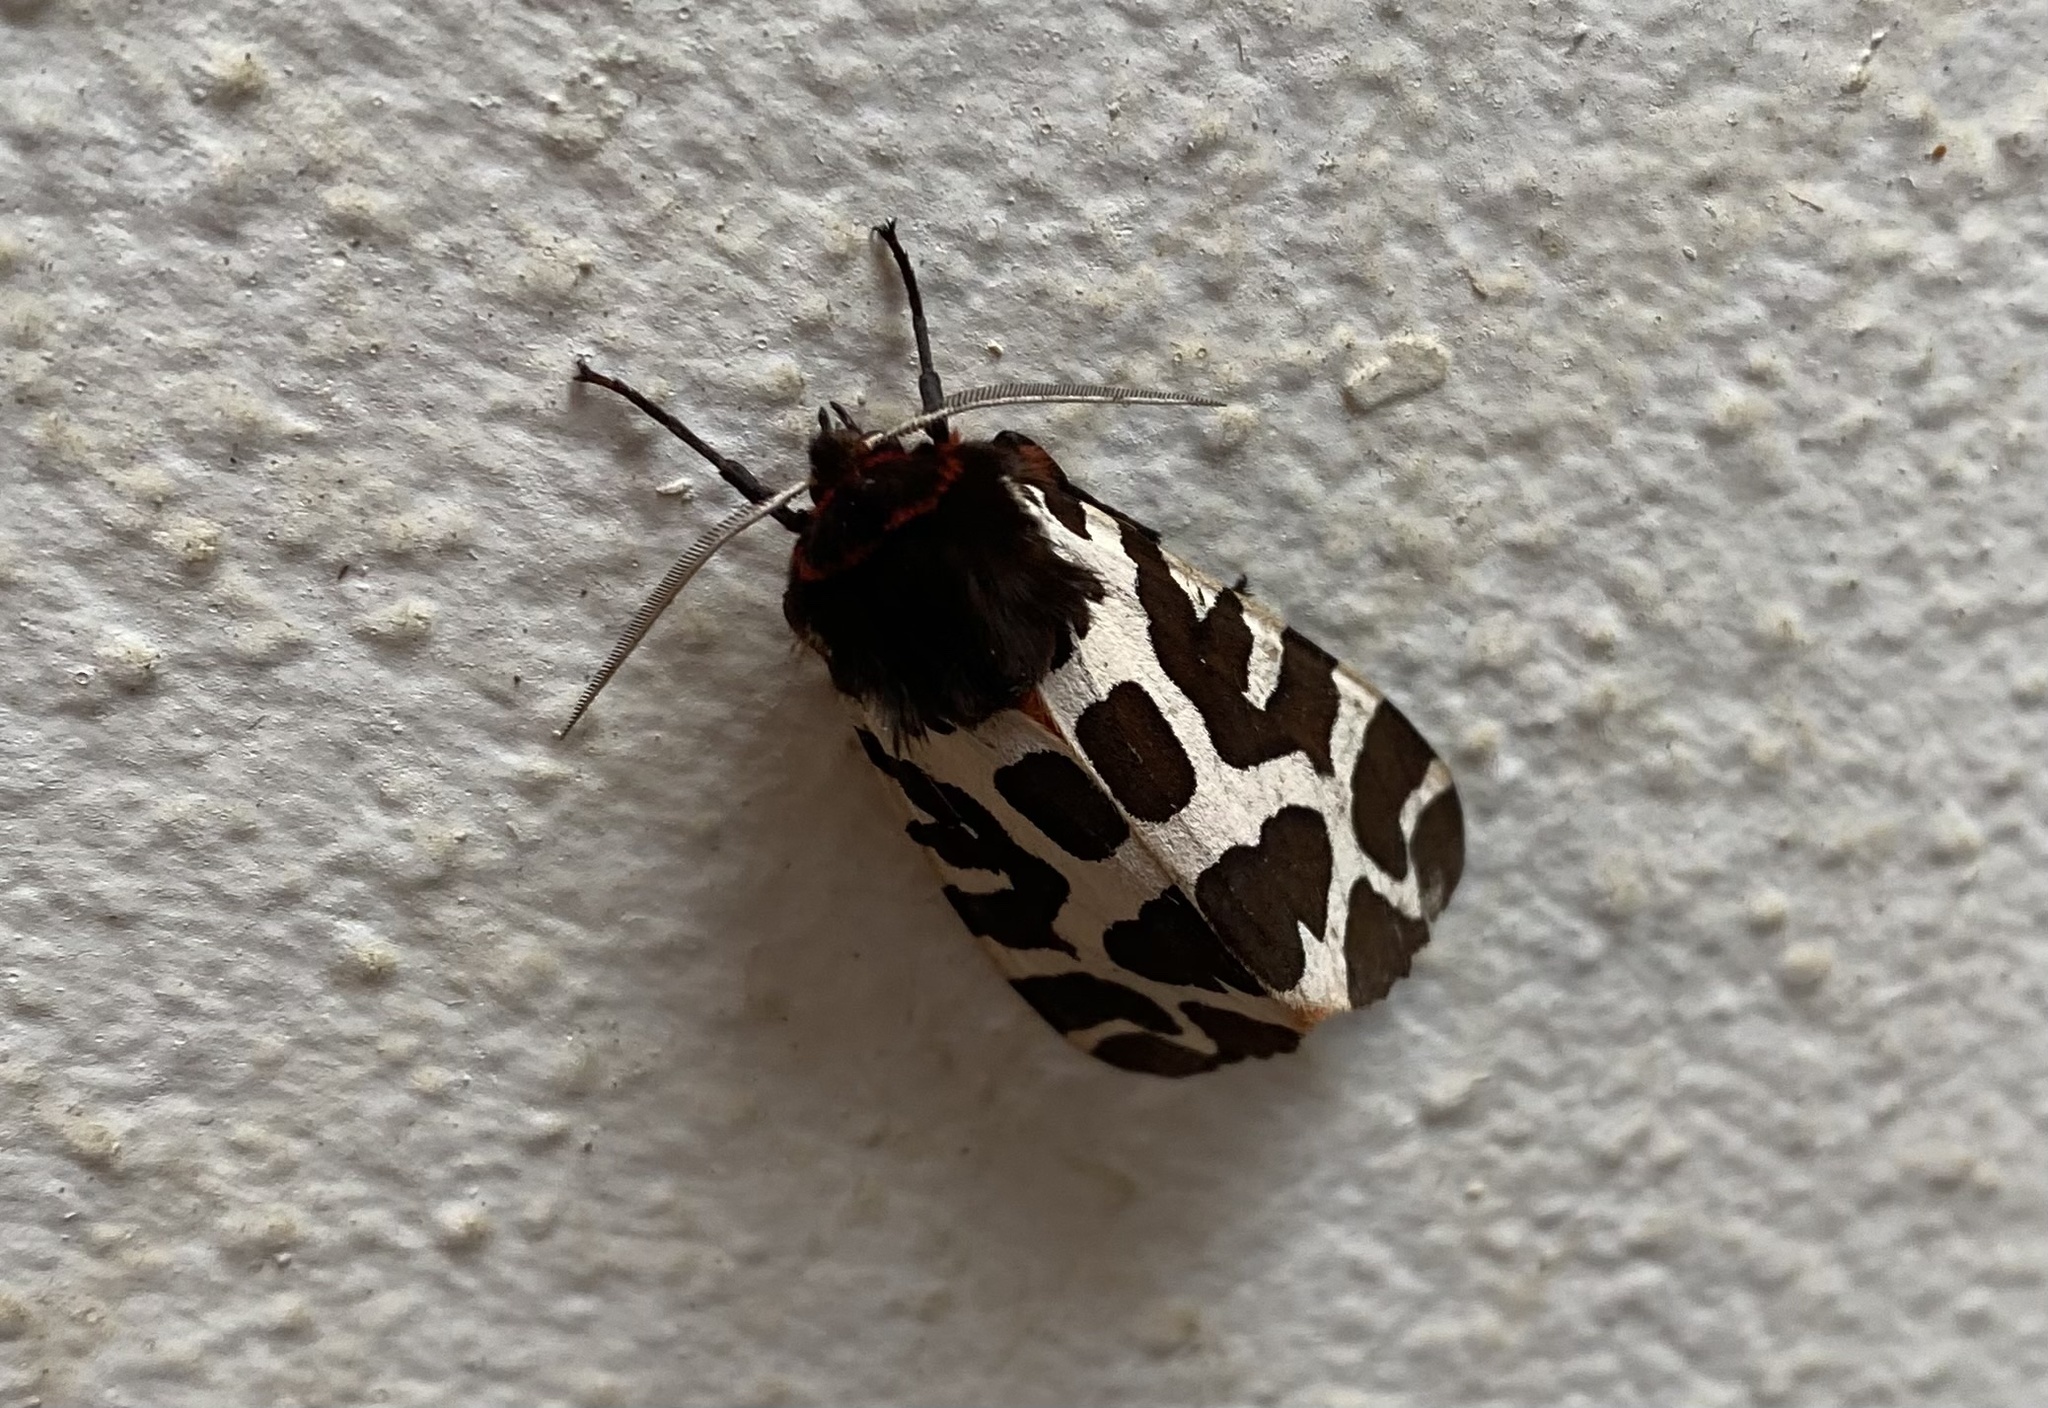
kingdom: Animalia
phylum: Arthropoda
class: Insecta
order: Lepidoptera
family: Erebidae
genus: Arctia
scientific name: Arctia caja
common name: Garden tiger
